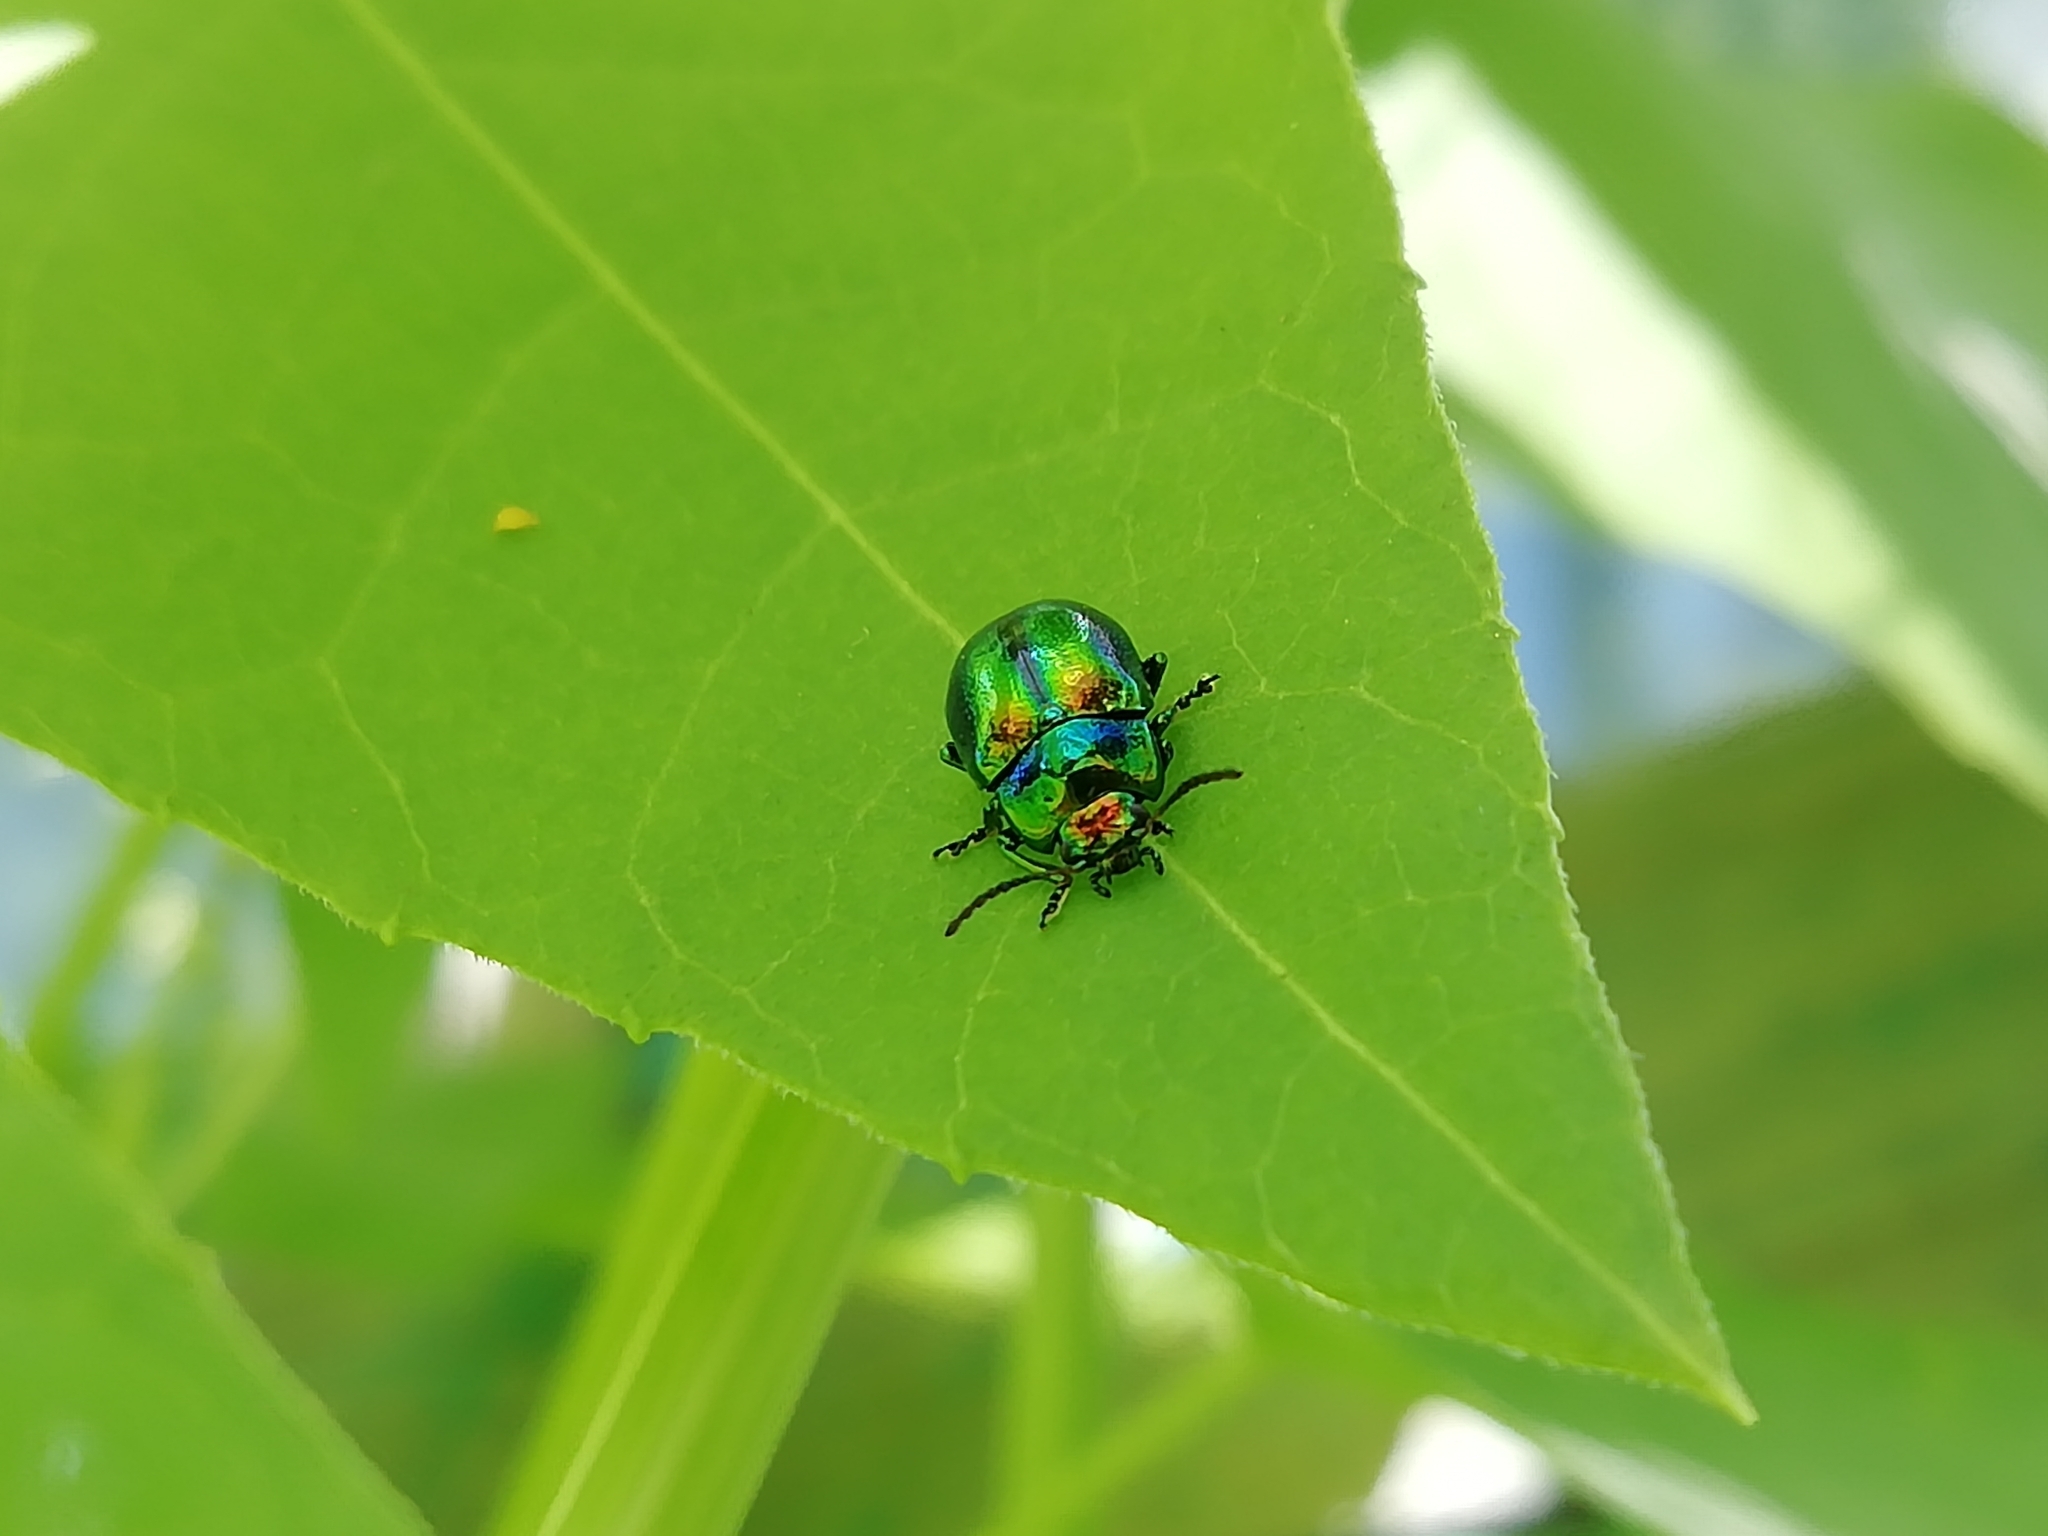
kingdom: Animalia
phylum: Arthropoda
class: Insecta
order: Coleoptera
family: Chrysomelidae
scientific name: Chrysomelidae
